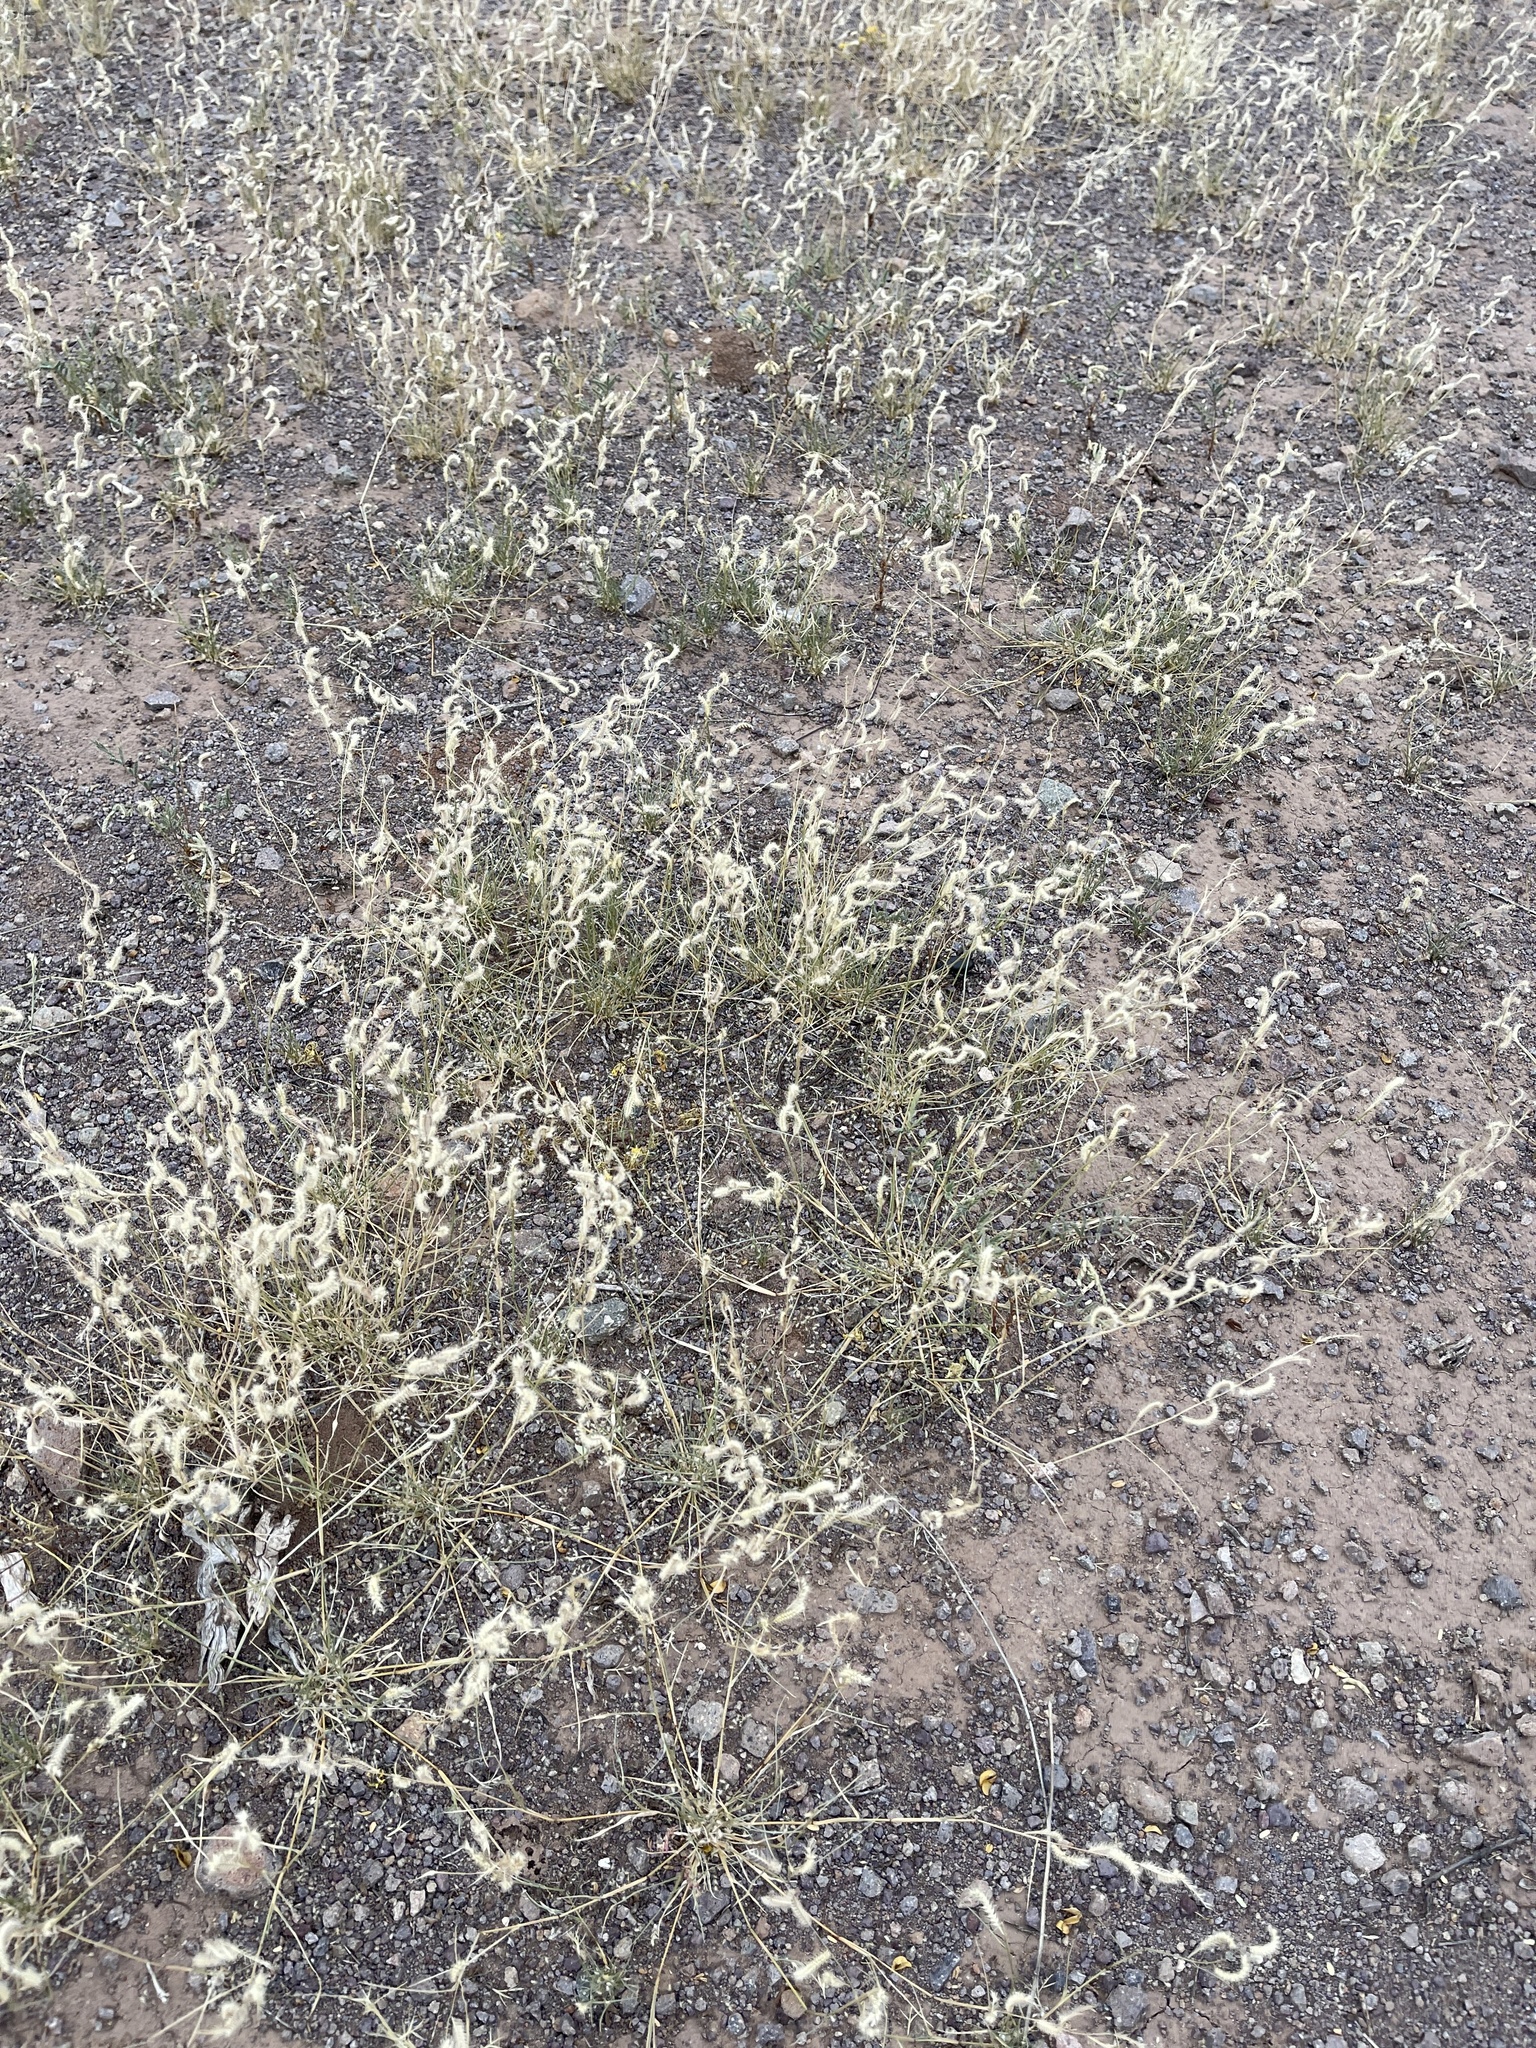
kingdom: Plantae
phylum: Tracheophyta
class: Liliopsida
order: Poales
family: Poaceae
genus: Bouteloua
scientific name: Bouteloua gracilis
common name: Blue grama
